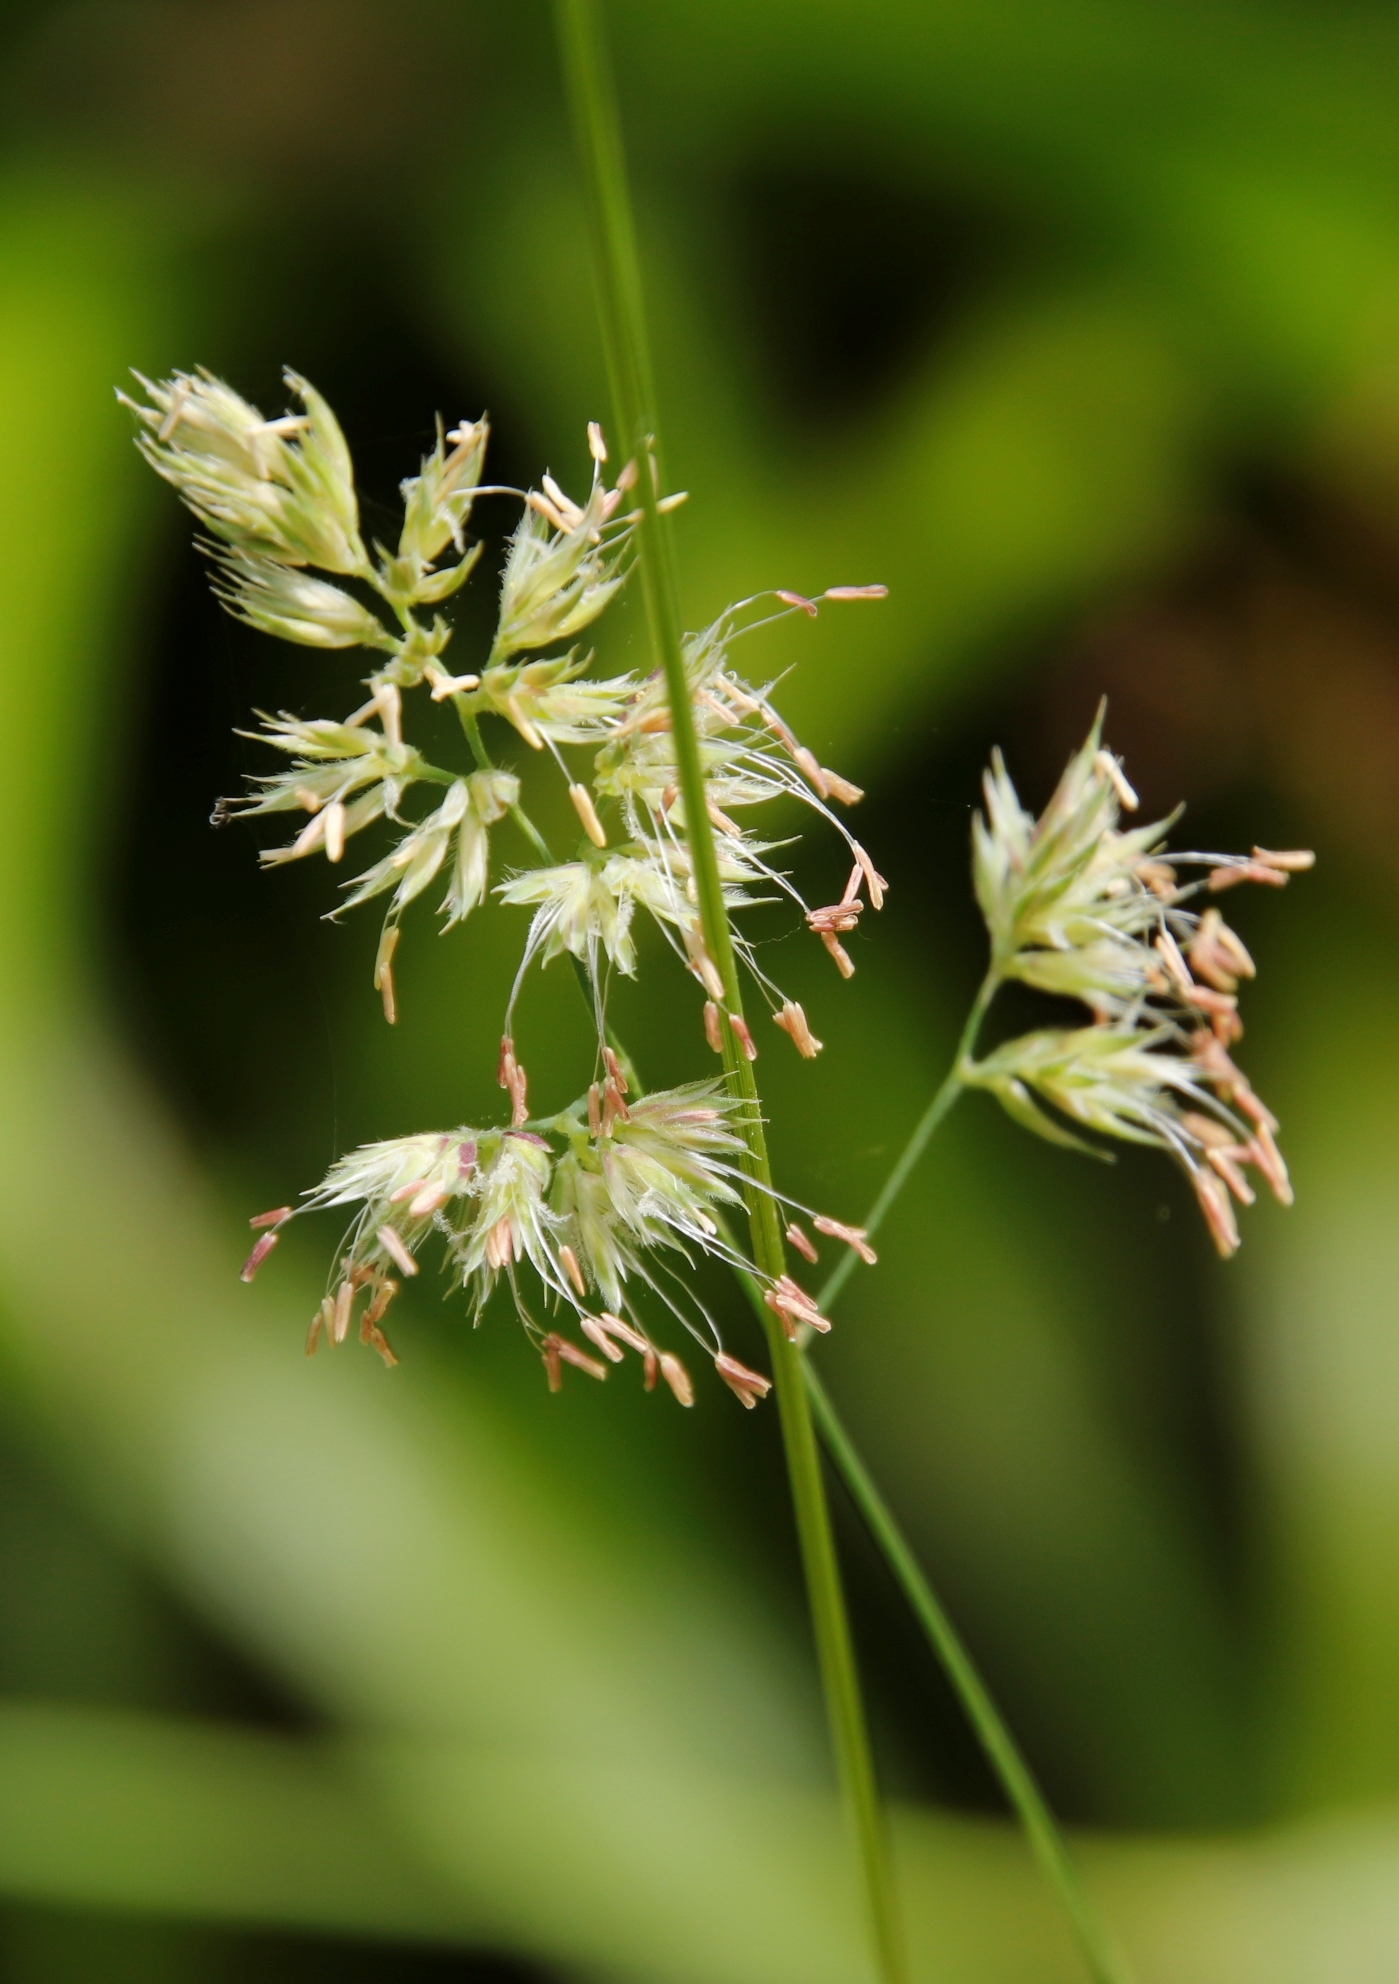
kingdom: Plantae
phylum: Tracheophyta
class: Liliopsida
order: Poales
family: Poaceae
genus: Dactylis
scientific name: Dactylis glomerata
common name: Orchardgrass
